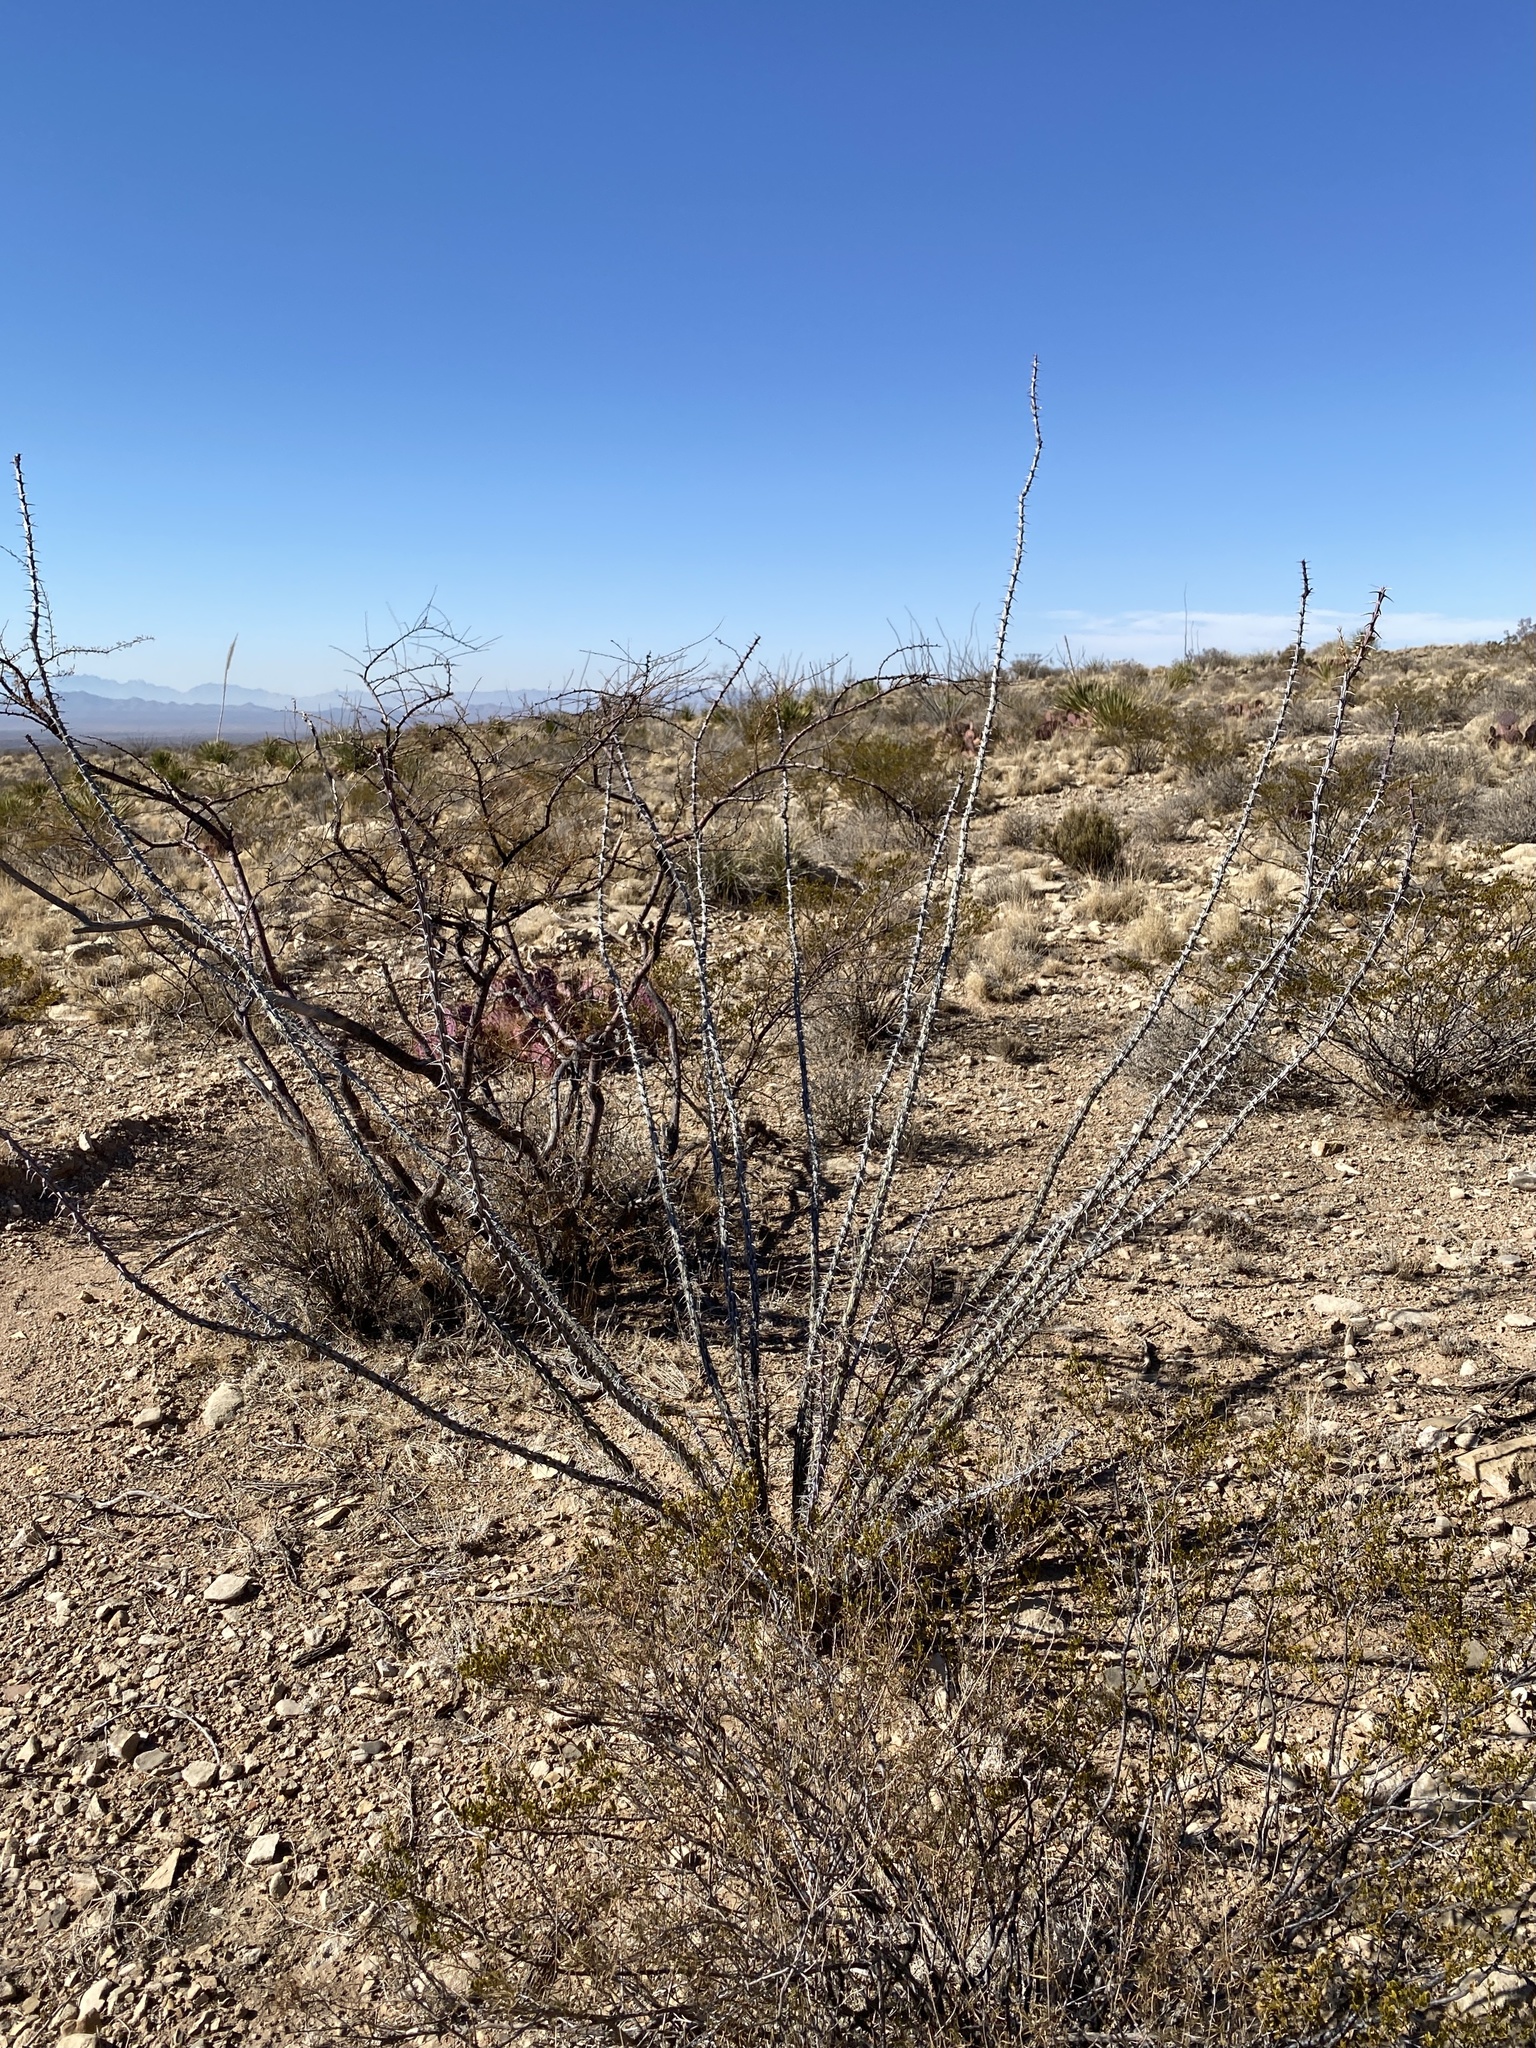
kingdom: Plantae
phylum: Tracheophyta
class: Magnoliopsida
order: Ericales
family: Fouquieriaceae
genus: Fouquieria
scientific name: Fouquieria splendens
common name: Vine-cactus
